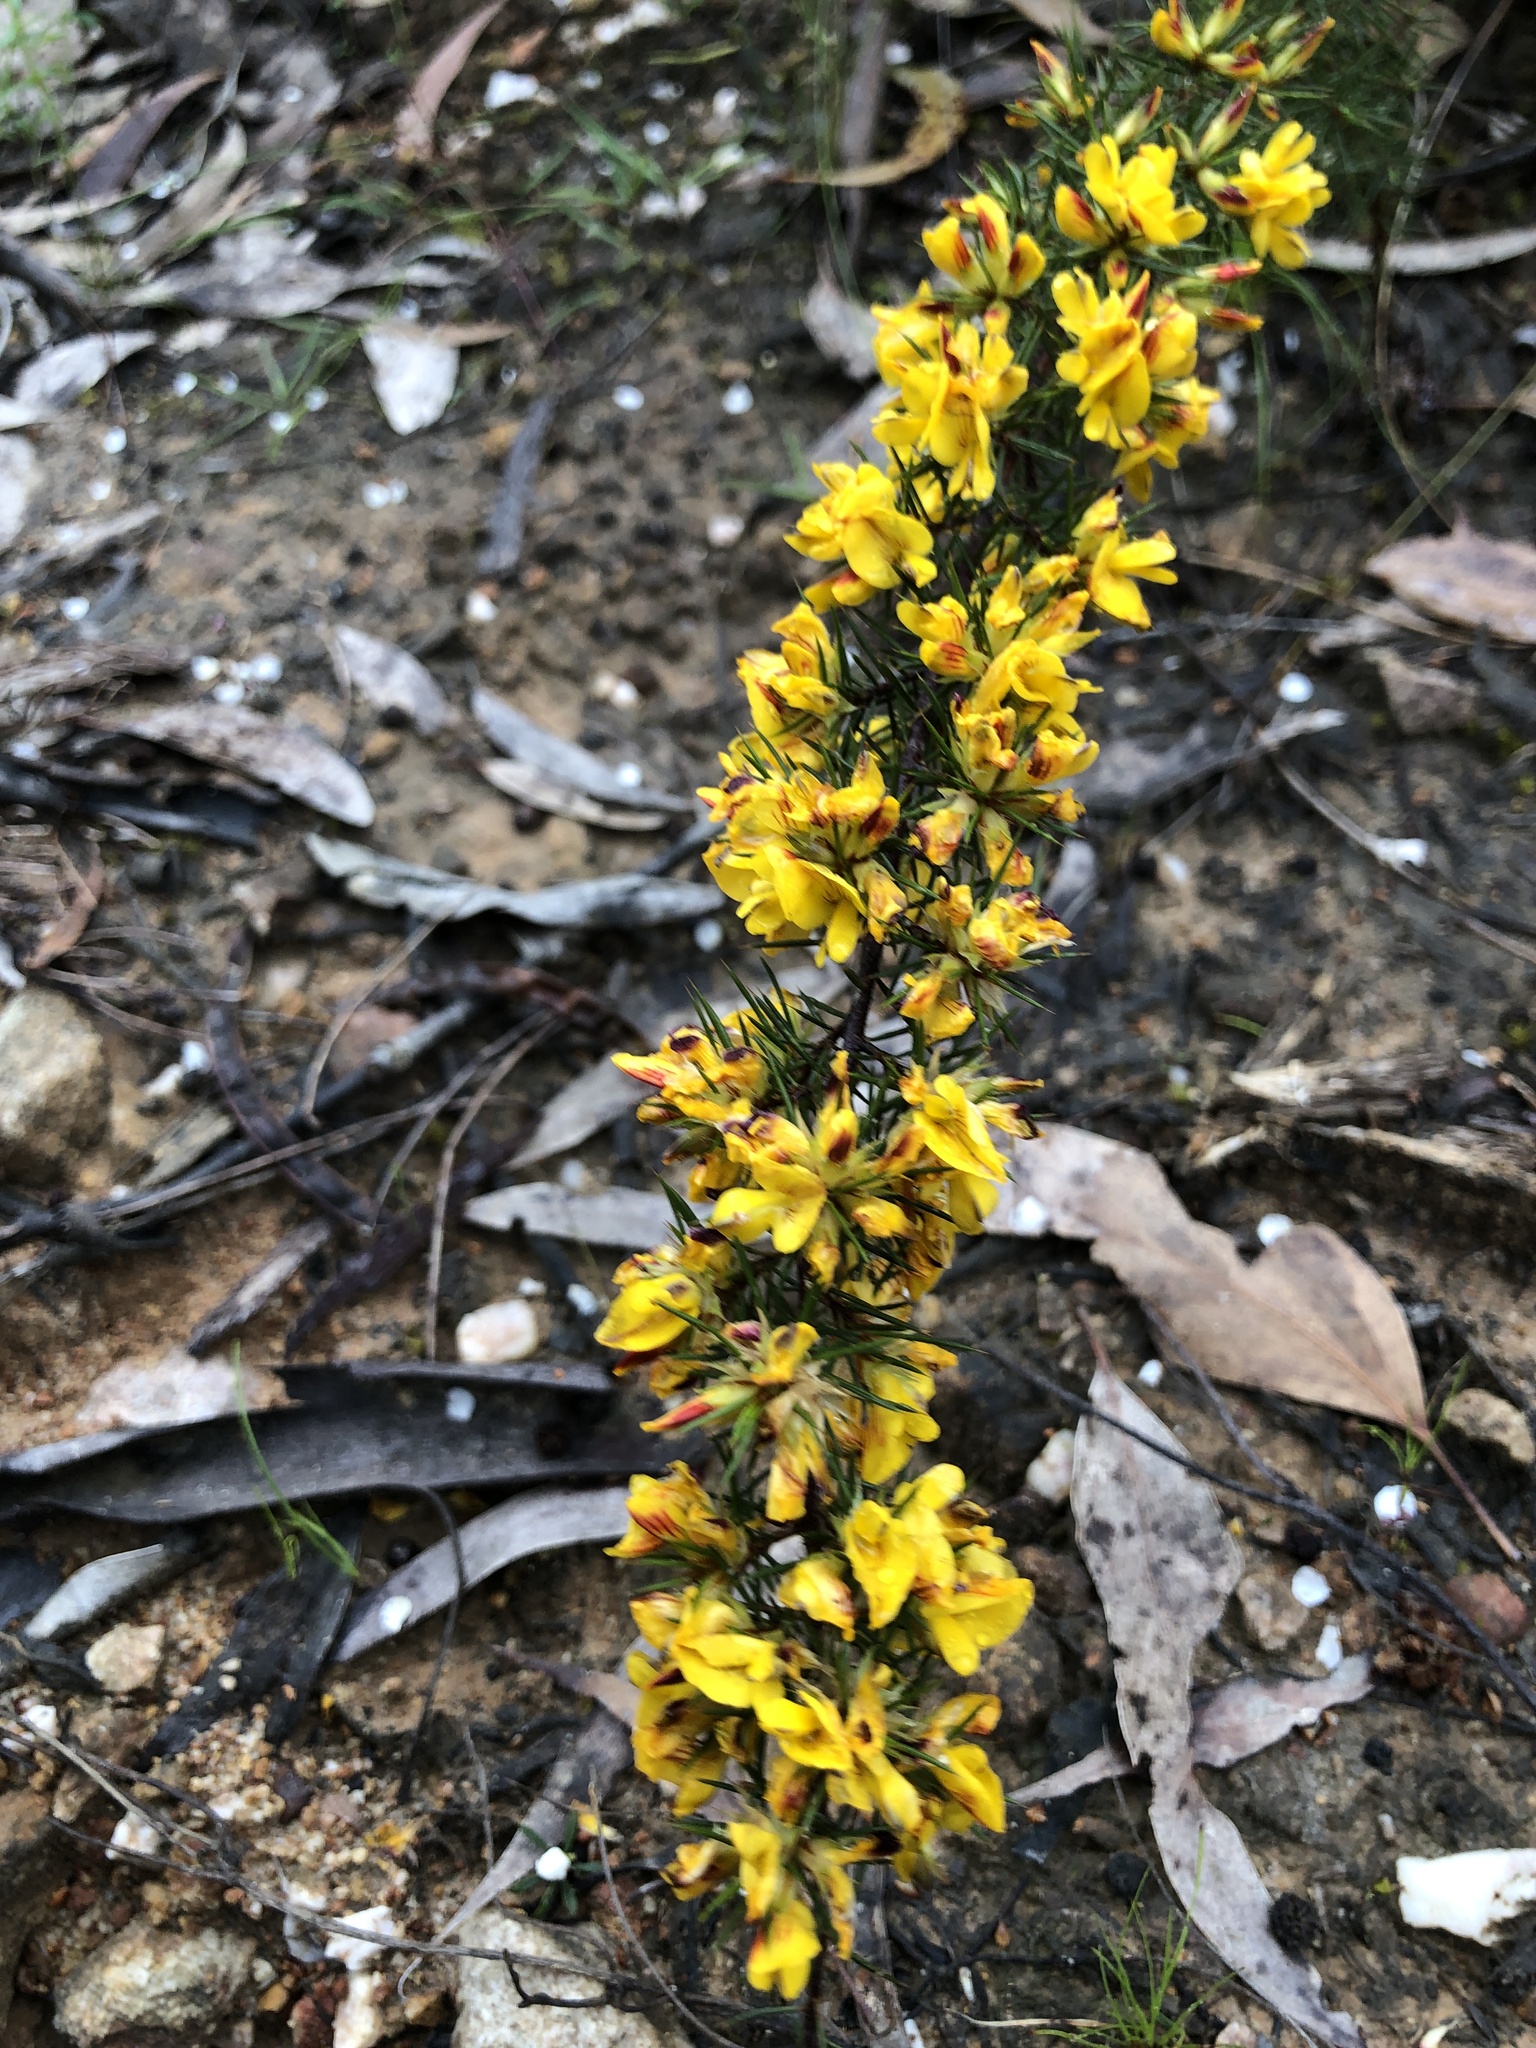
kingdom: Plantae
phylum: Tracheophyta
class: Magnoliopsida
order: Fabales
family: Fabaceae
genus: Pultenaea
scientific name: Pultenaea acerosa
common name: Bristly bush-pea
